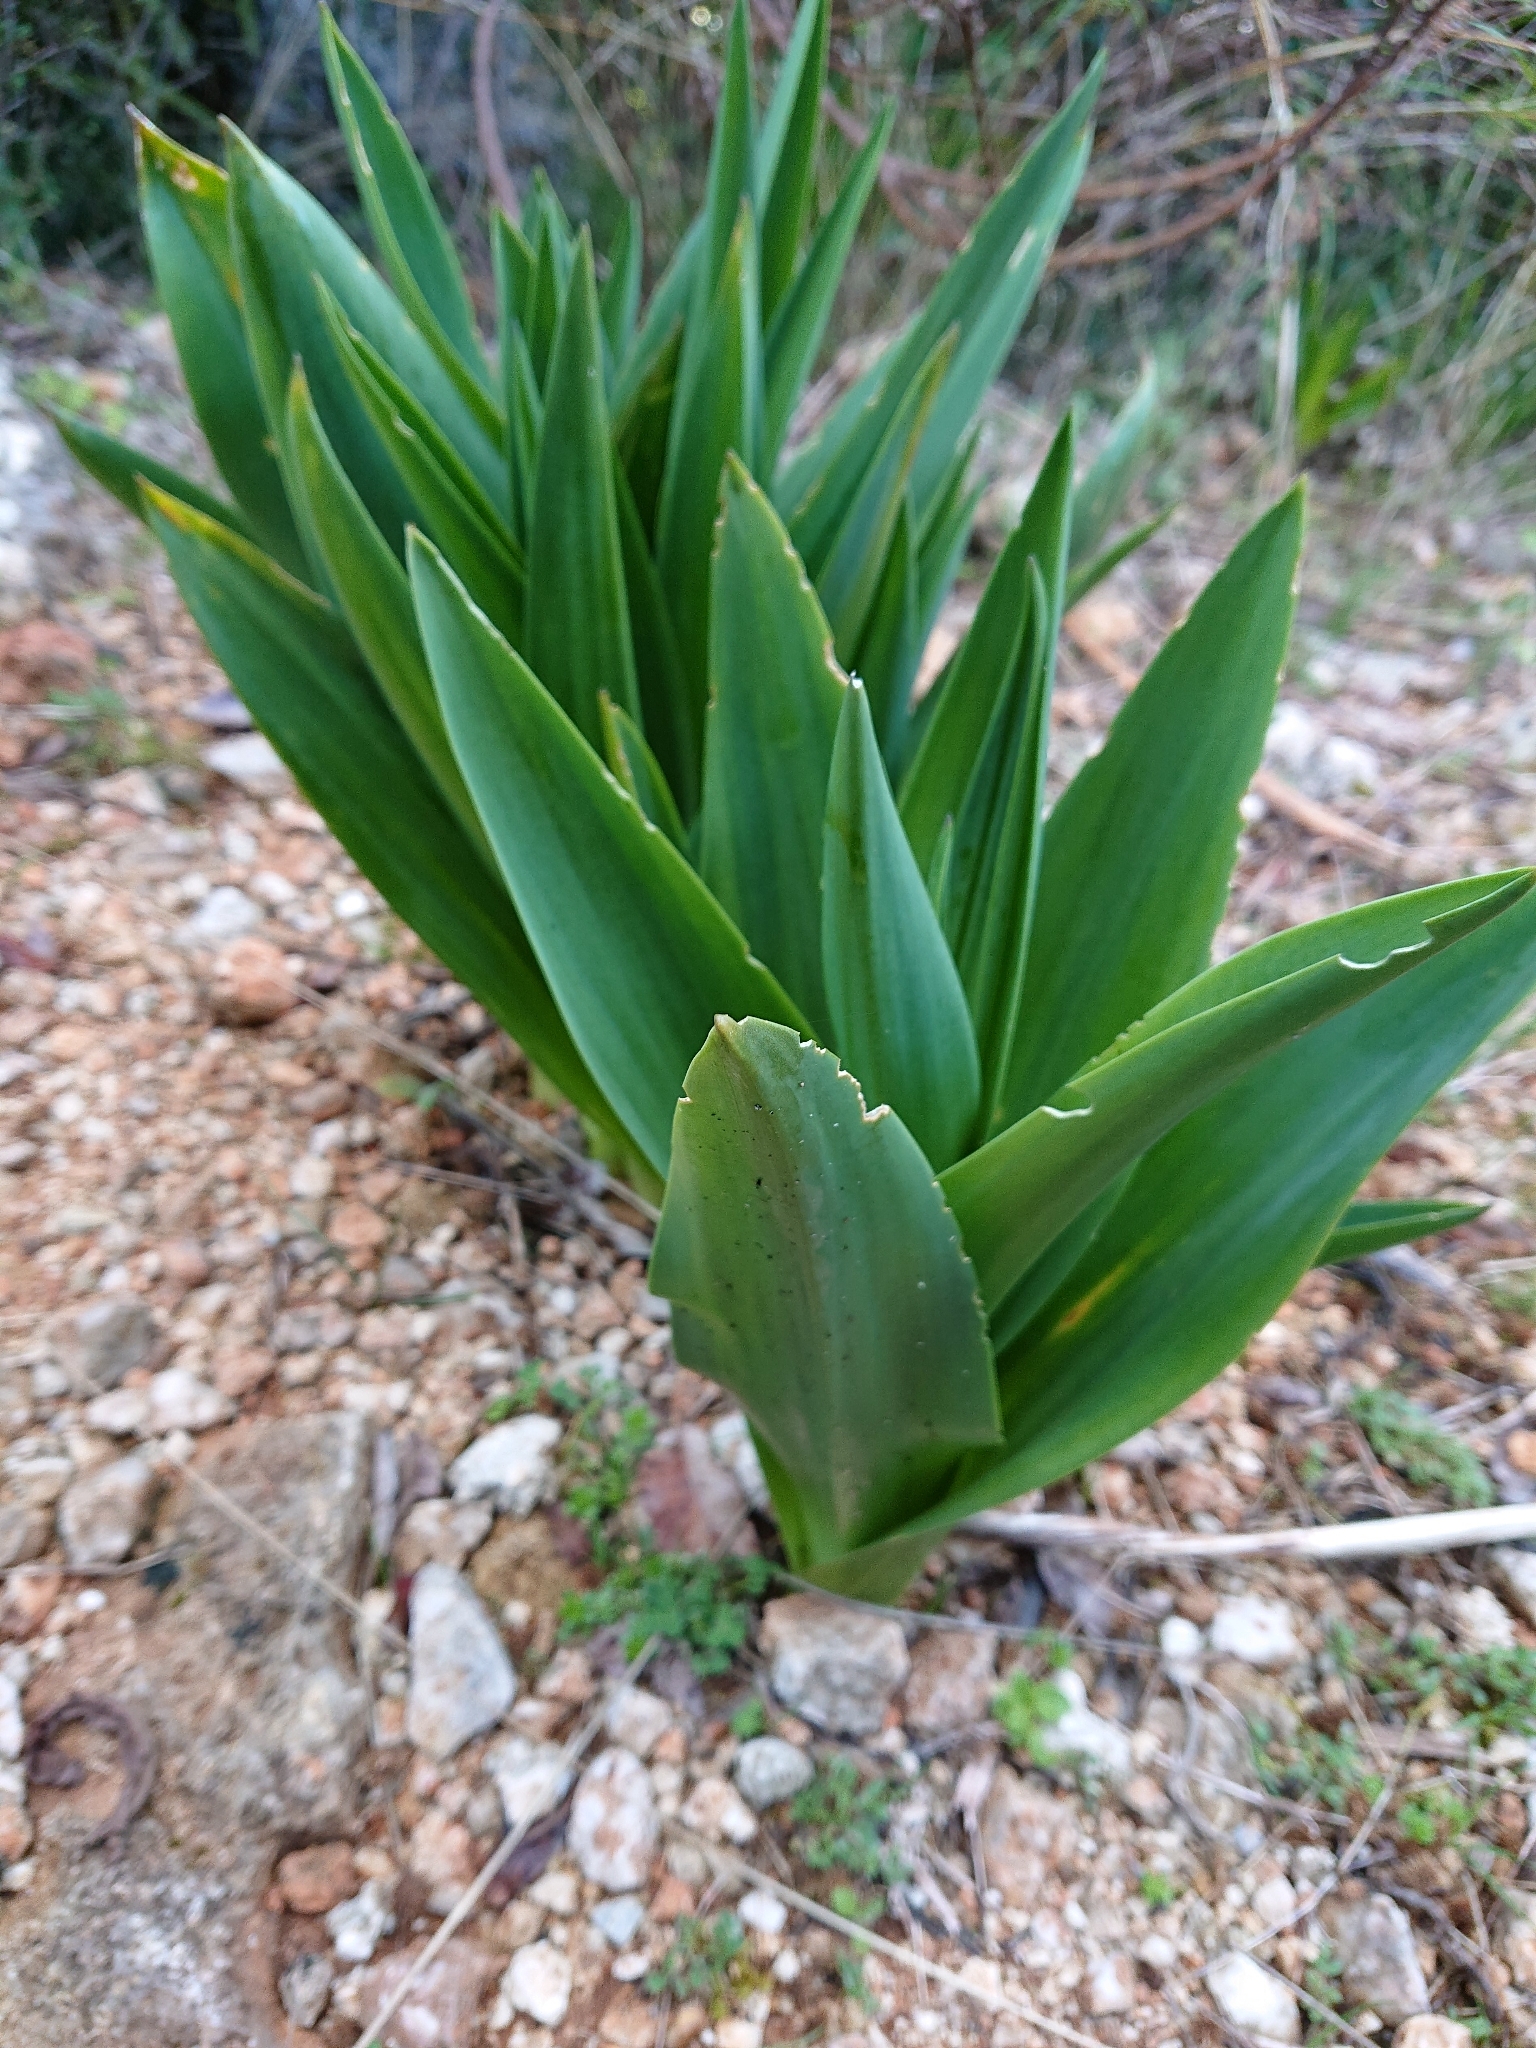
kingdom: Plantae
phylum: Tracheophyta
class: Liliopsida
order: Asparagales
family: Asparagaceae
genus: Drimia
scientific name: Drimia numidica
